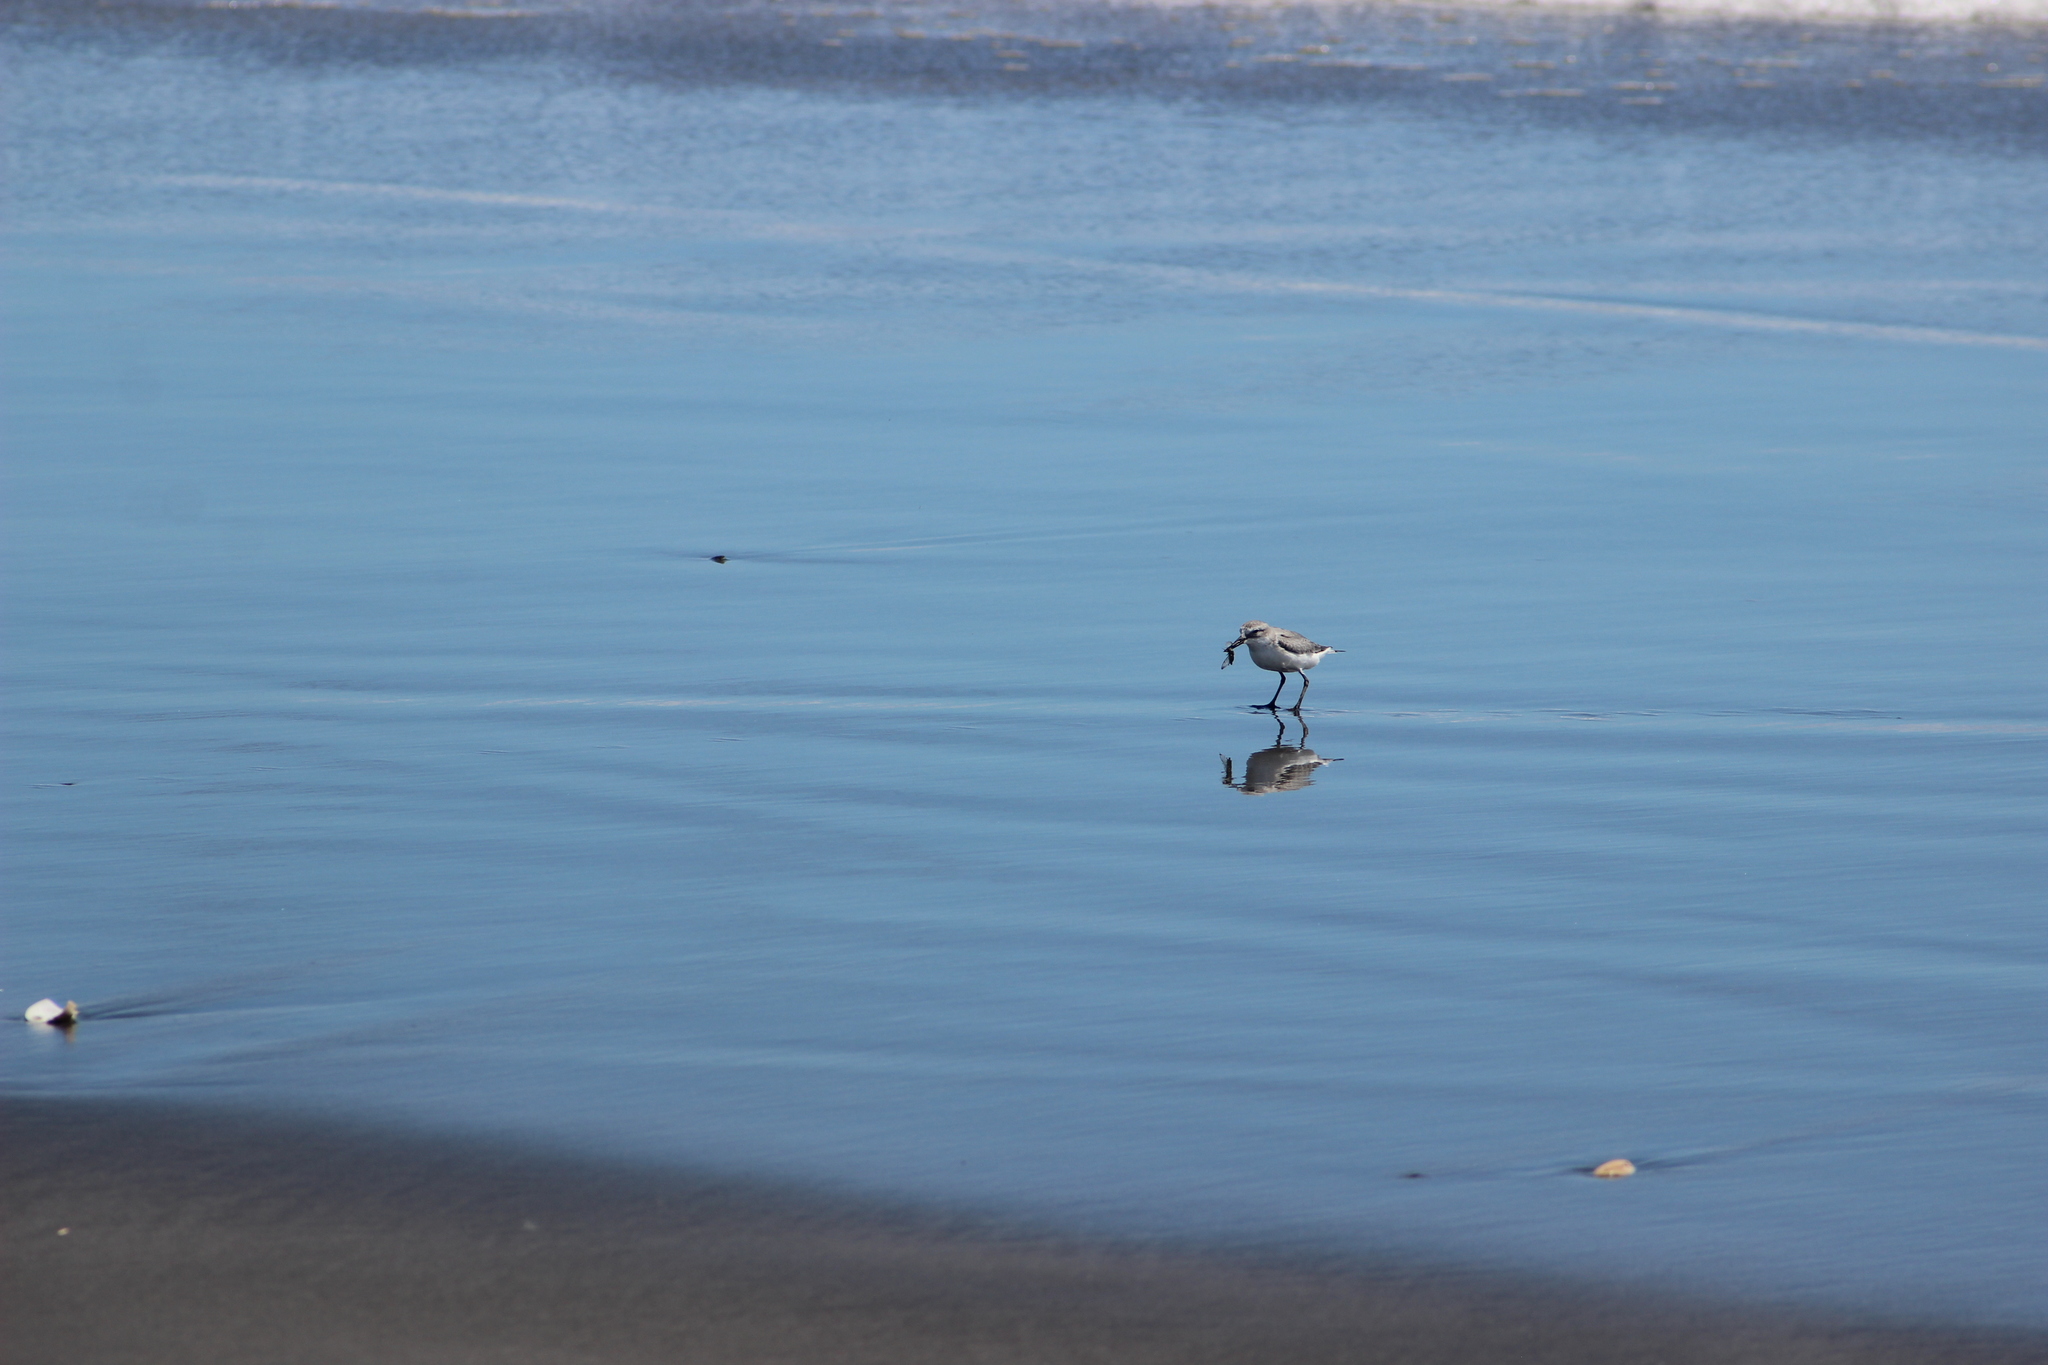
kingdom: Animalia
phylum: Chordata
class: Aves
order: Charadriiformes
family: Charadriidae
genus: Anarhynchus
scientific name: Anarhynchus frontalis
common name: Wrybill
